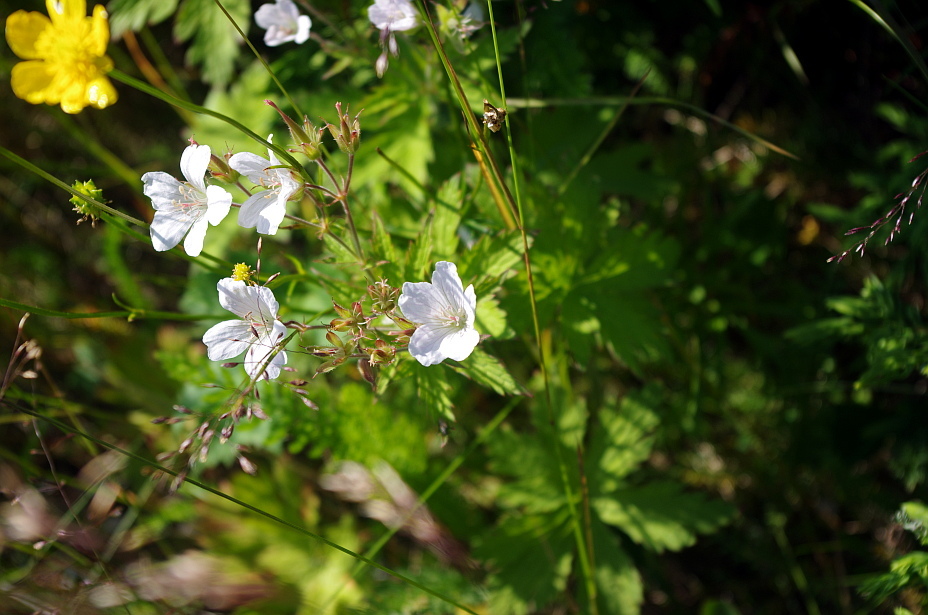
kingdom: Plantae
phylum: Tracheophyta
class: Magnoliopsida
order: Geraniales
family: Geraniaceae
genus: Geranium
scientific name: Geranium sylvaticum
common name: Wood crane's-bill
